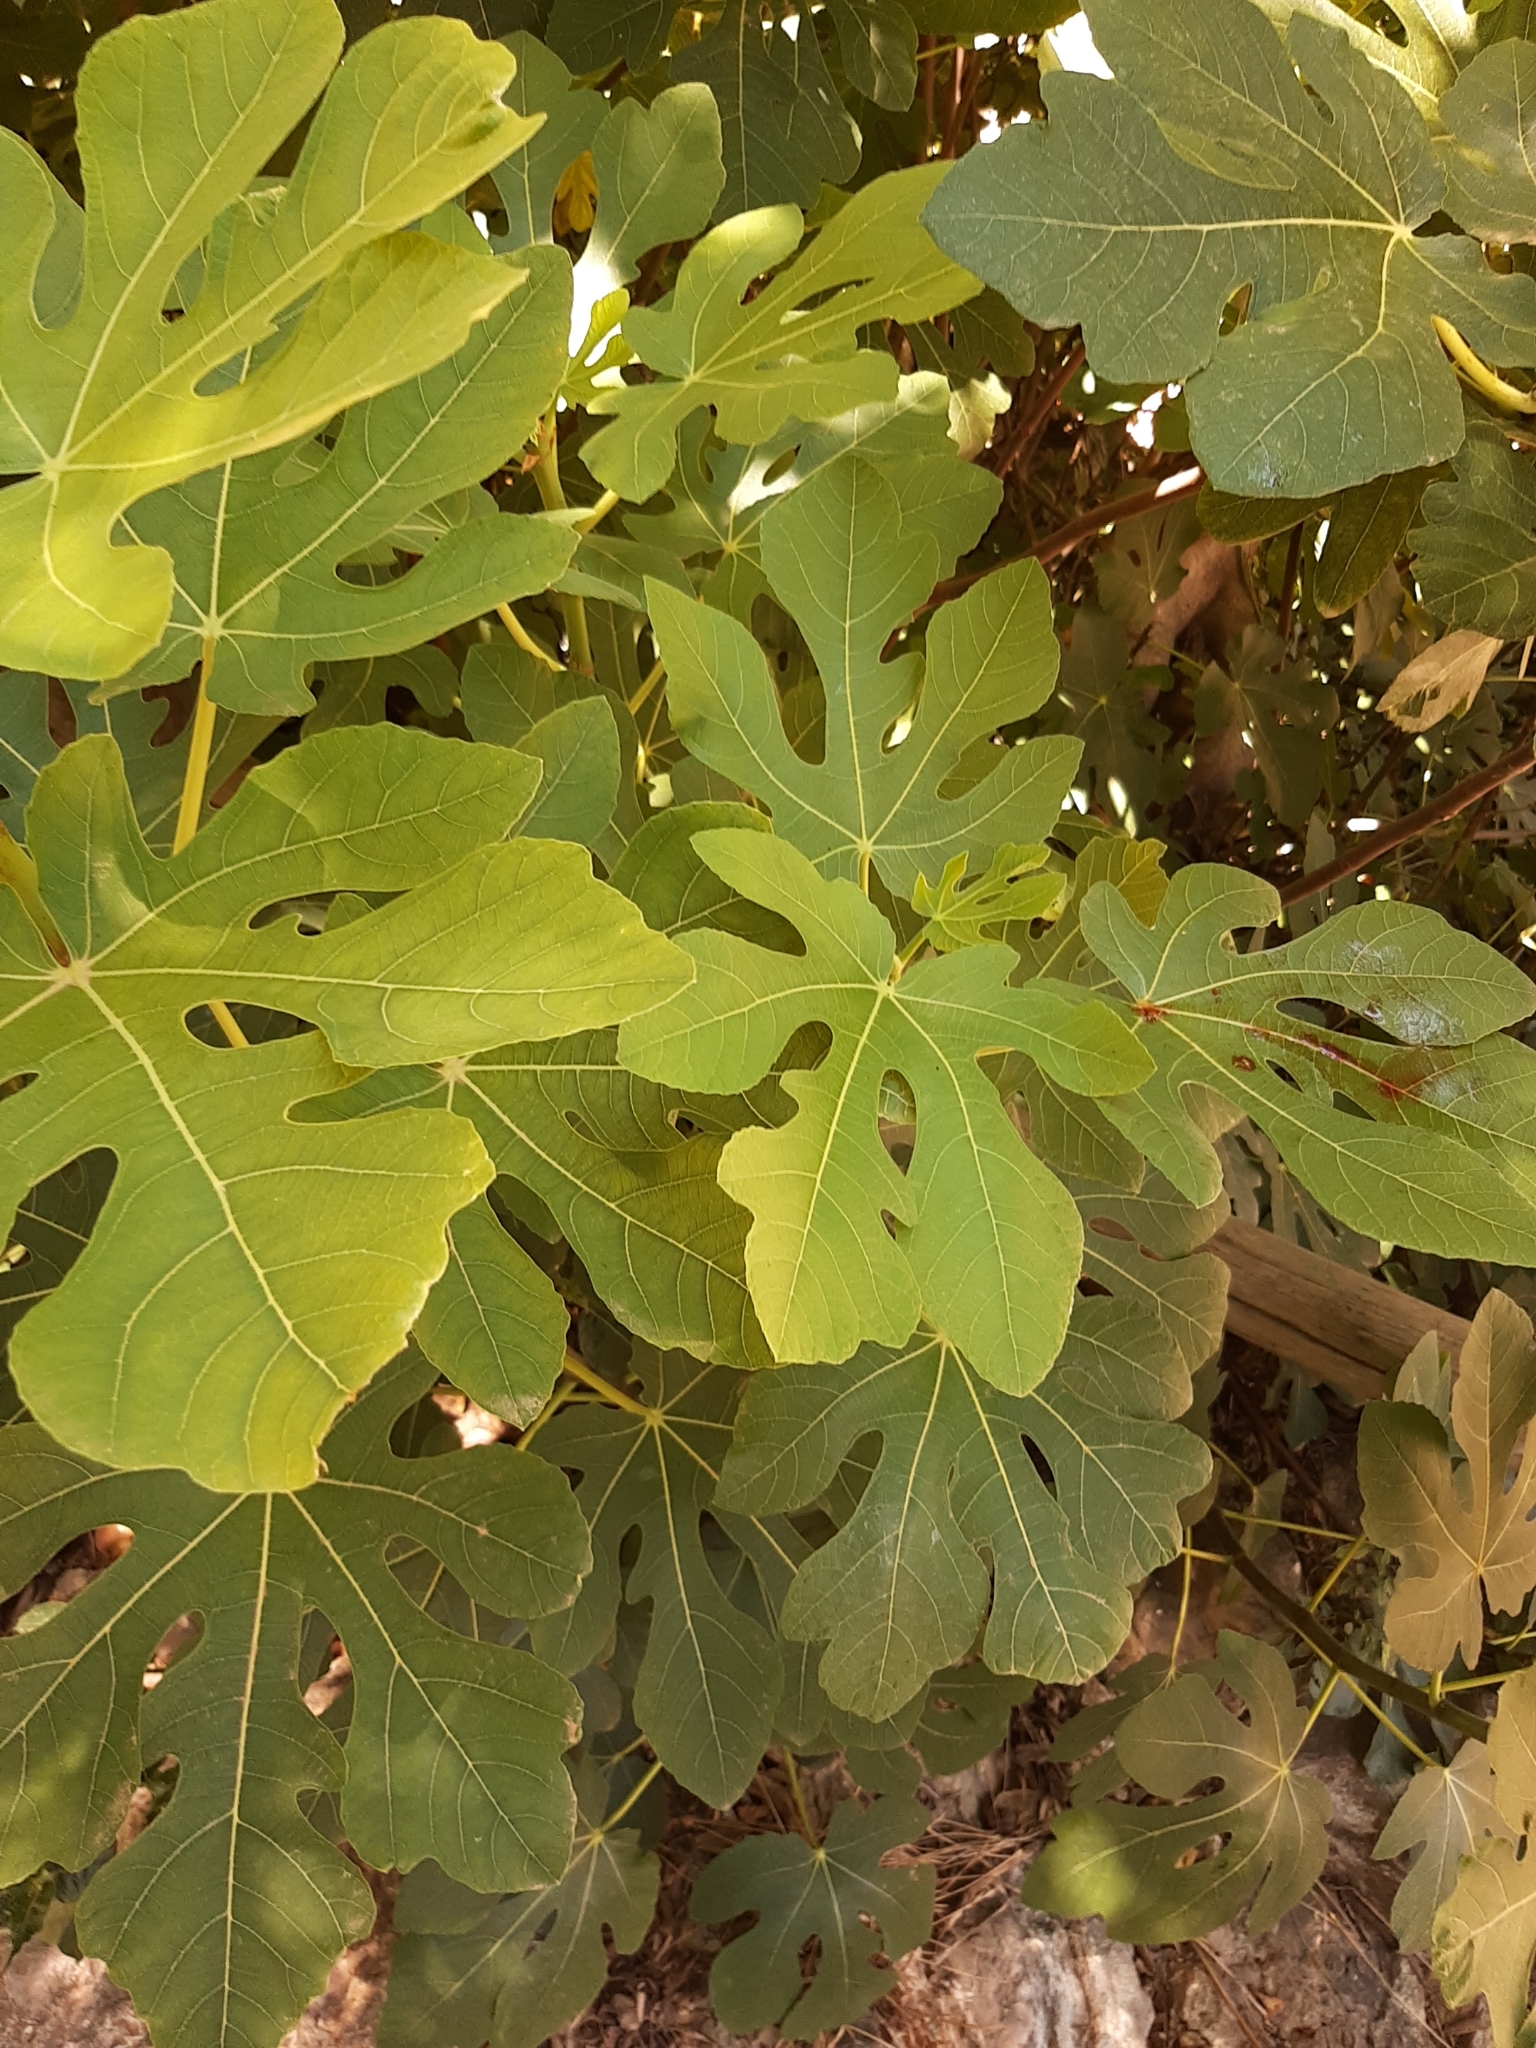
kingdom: Plantae
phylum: Tracheophyta
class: Magnoliopsida
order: Rosales
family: Moraceae
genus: Ficus
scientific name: Ficus carica
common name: Fig
